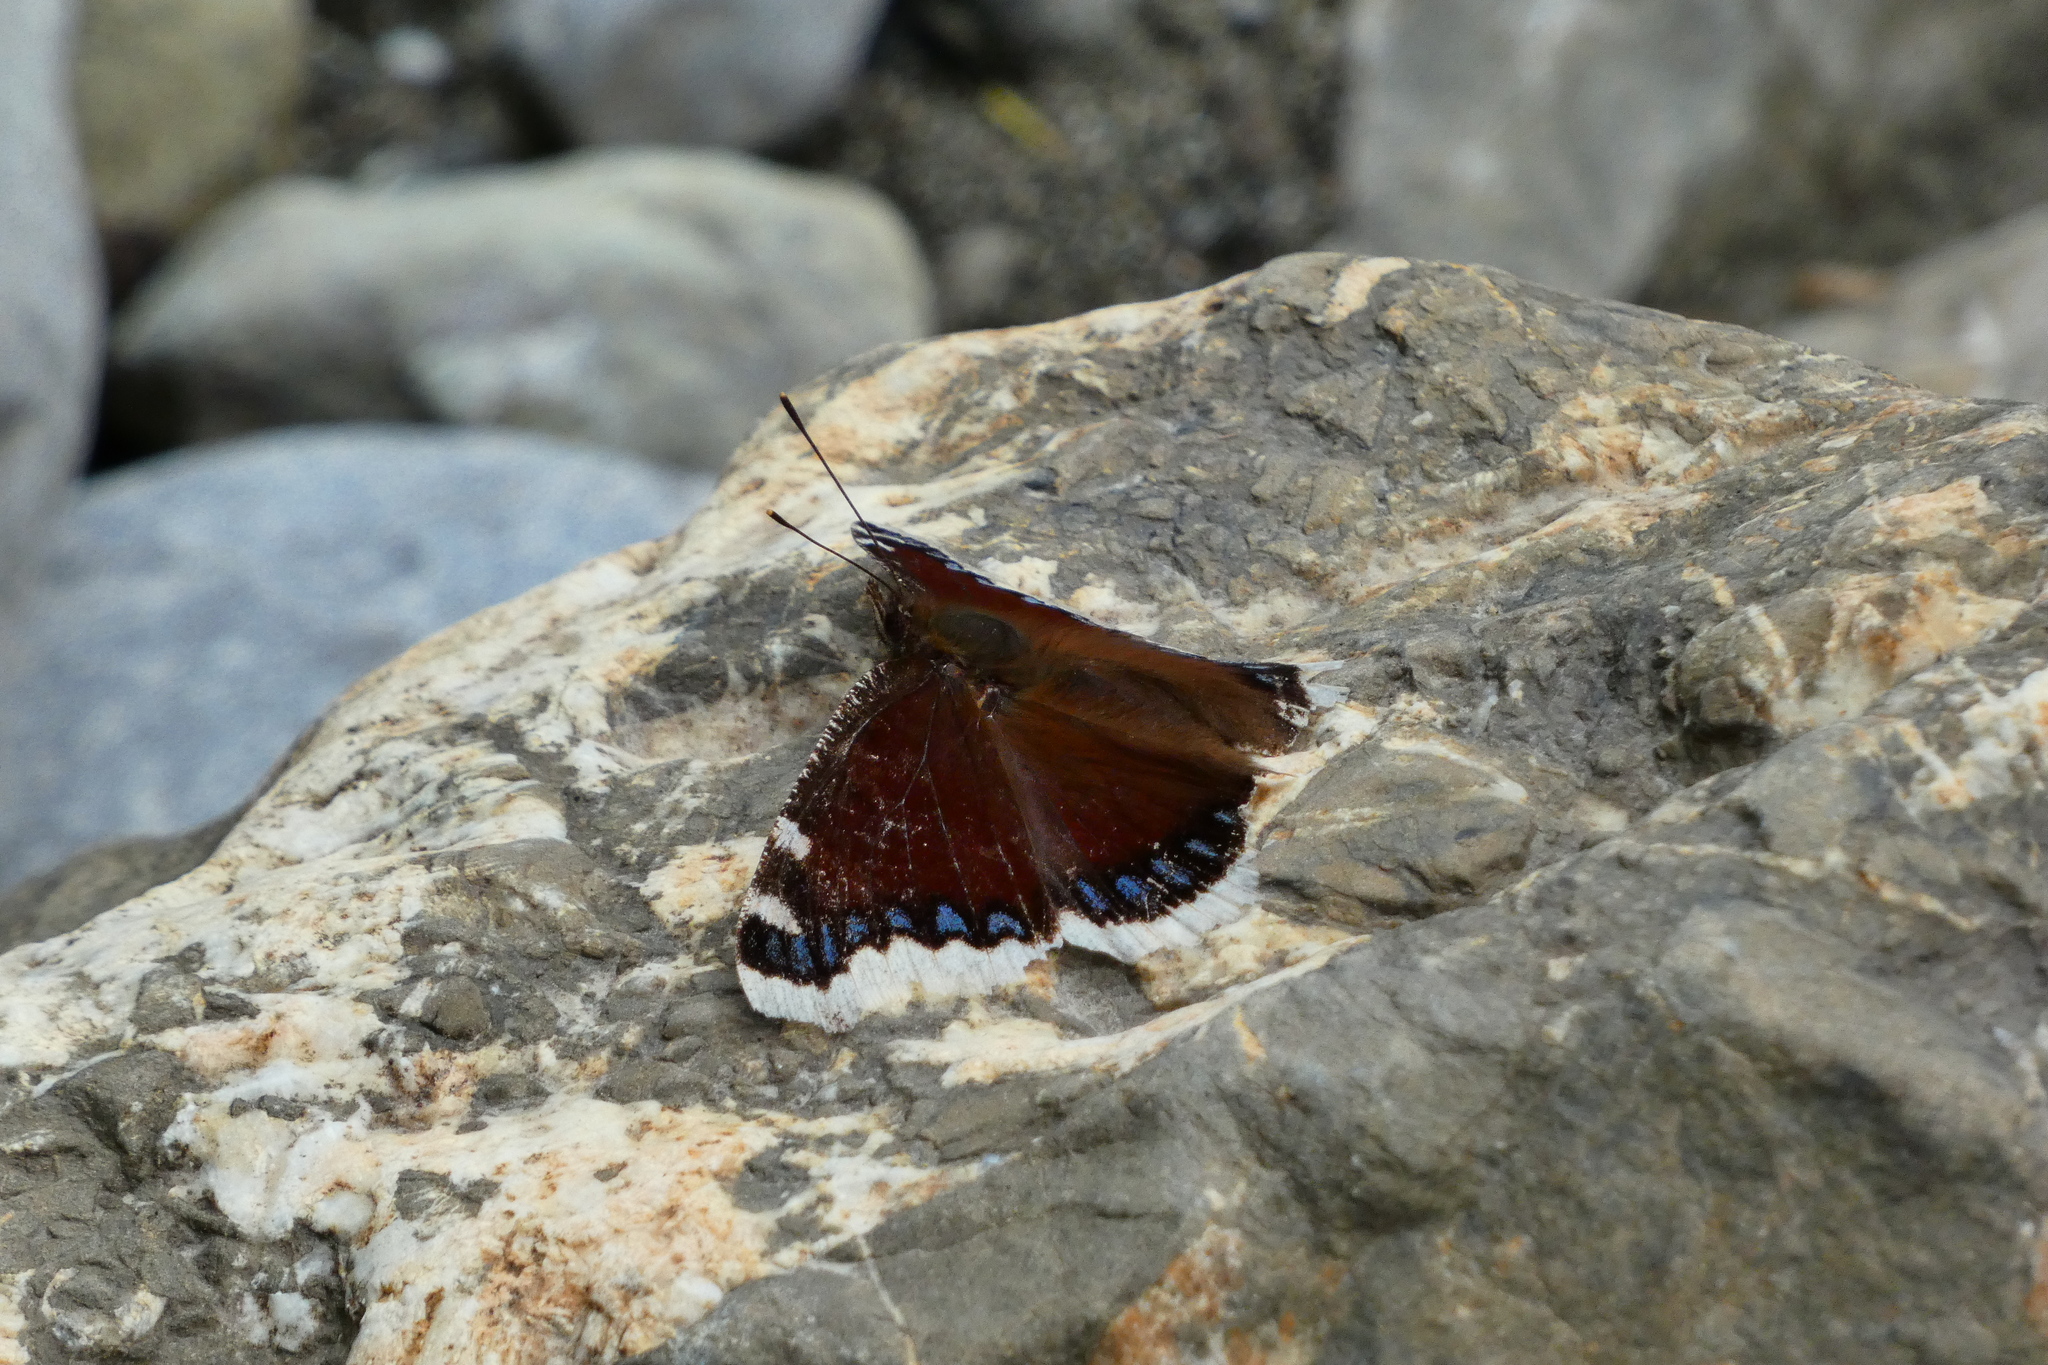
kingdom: Animalia
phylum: Arthropoda
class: Insecta
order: Lepidoptera
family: Nymphalidae
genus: Nymphalis
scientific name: Nymphalis antiopa
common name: Camberwell beauty
